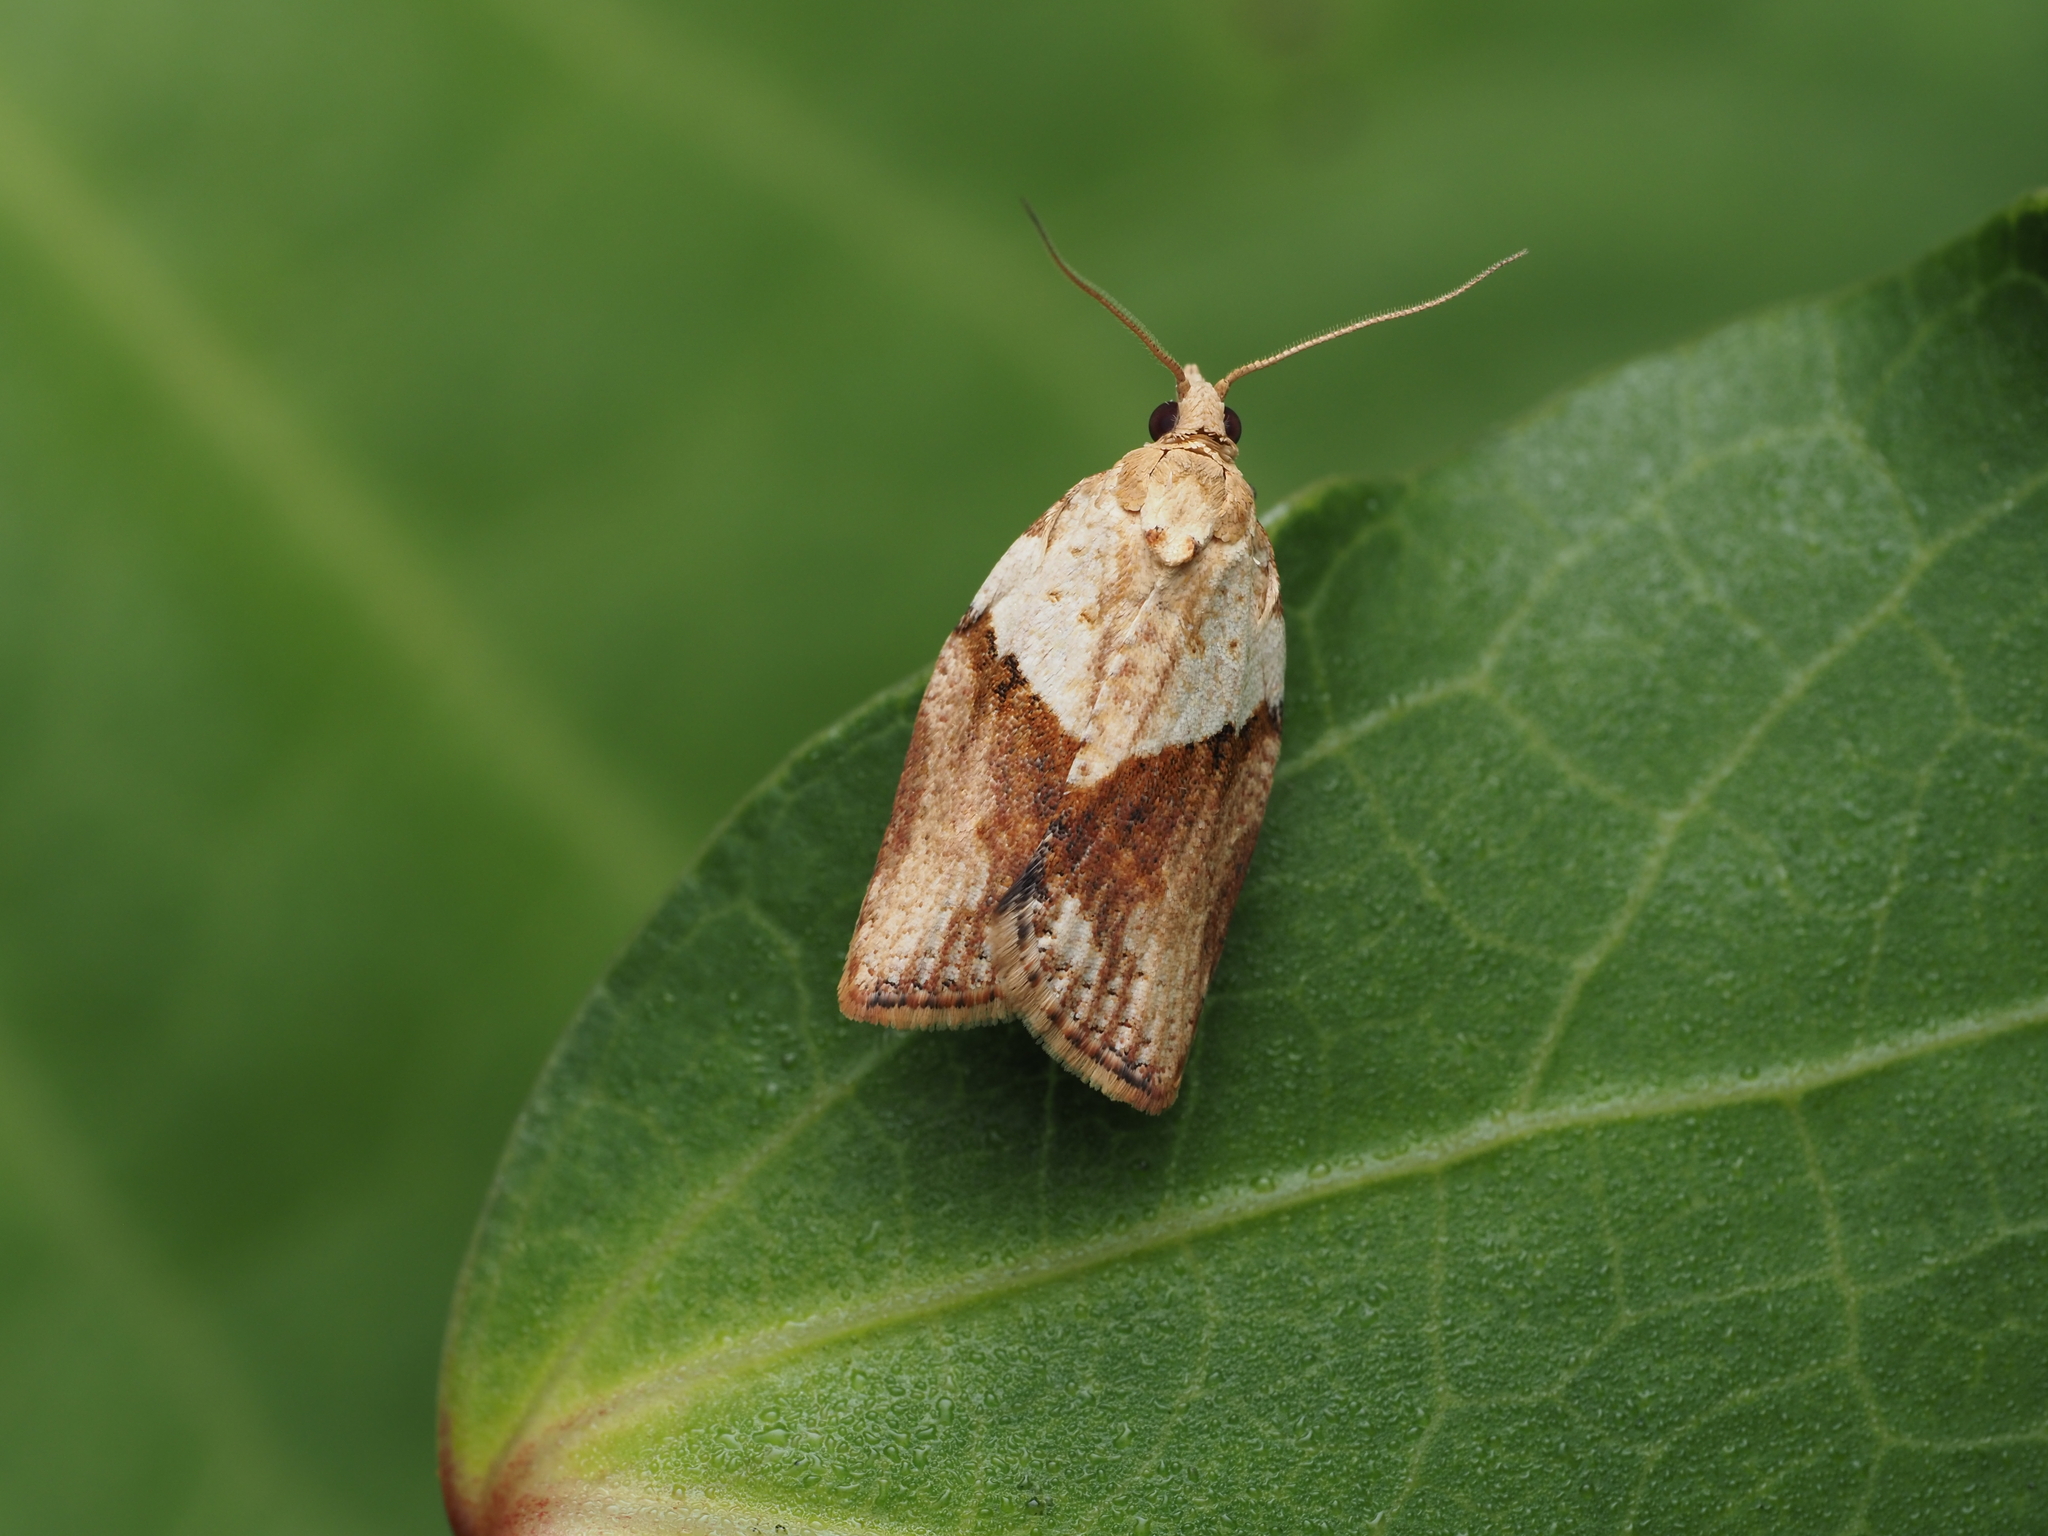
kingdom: Animalia
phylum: Arthropoda
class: Insecta
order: Lepidoptera
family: Tortricidae
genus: Epiphyas
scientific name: Epiphyas postvittana
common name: Light brown apple moth
